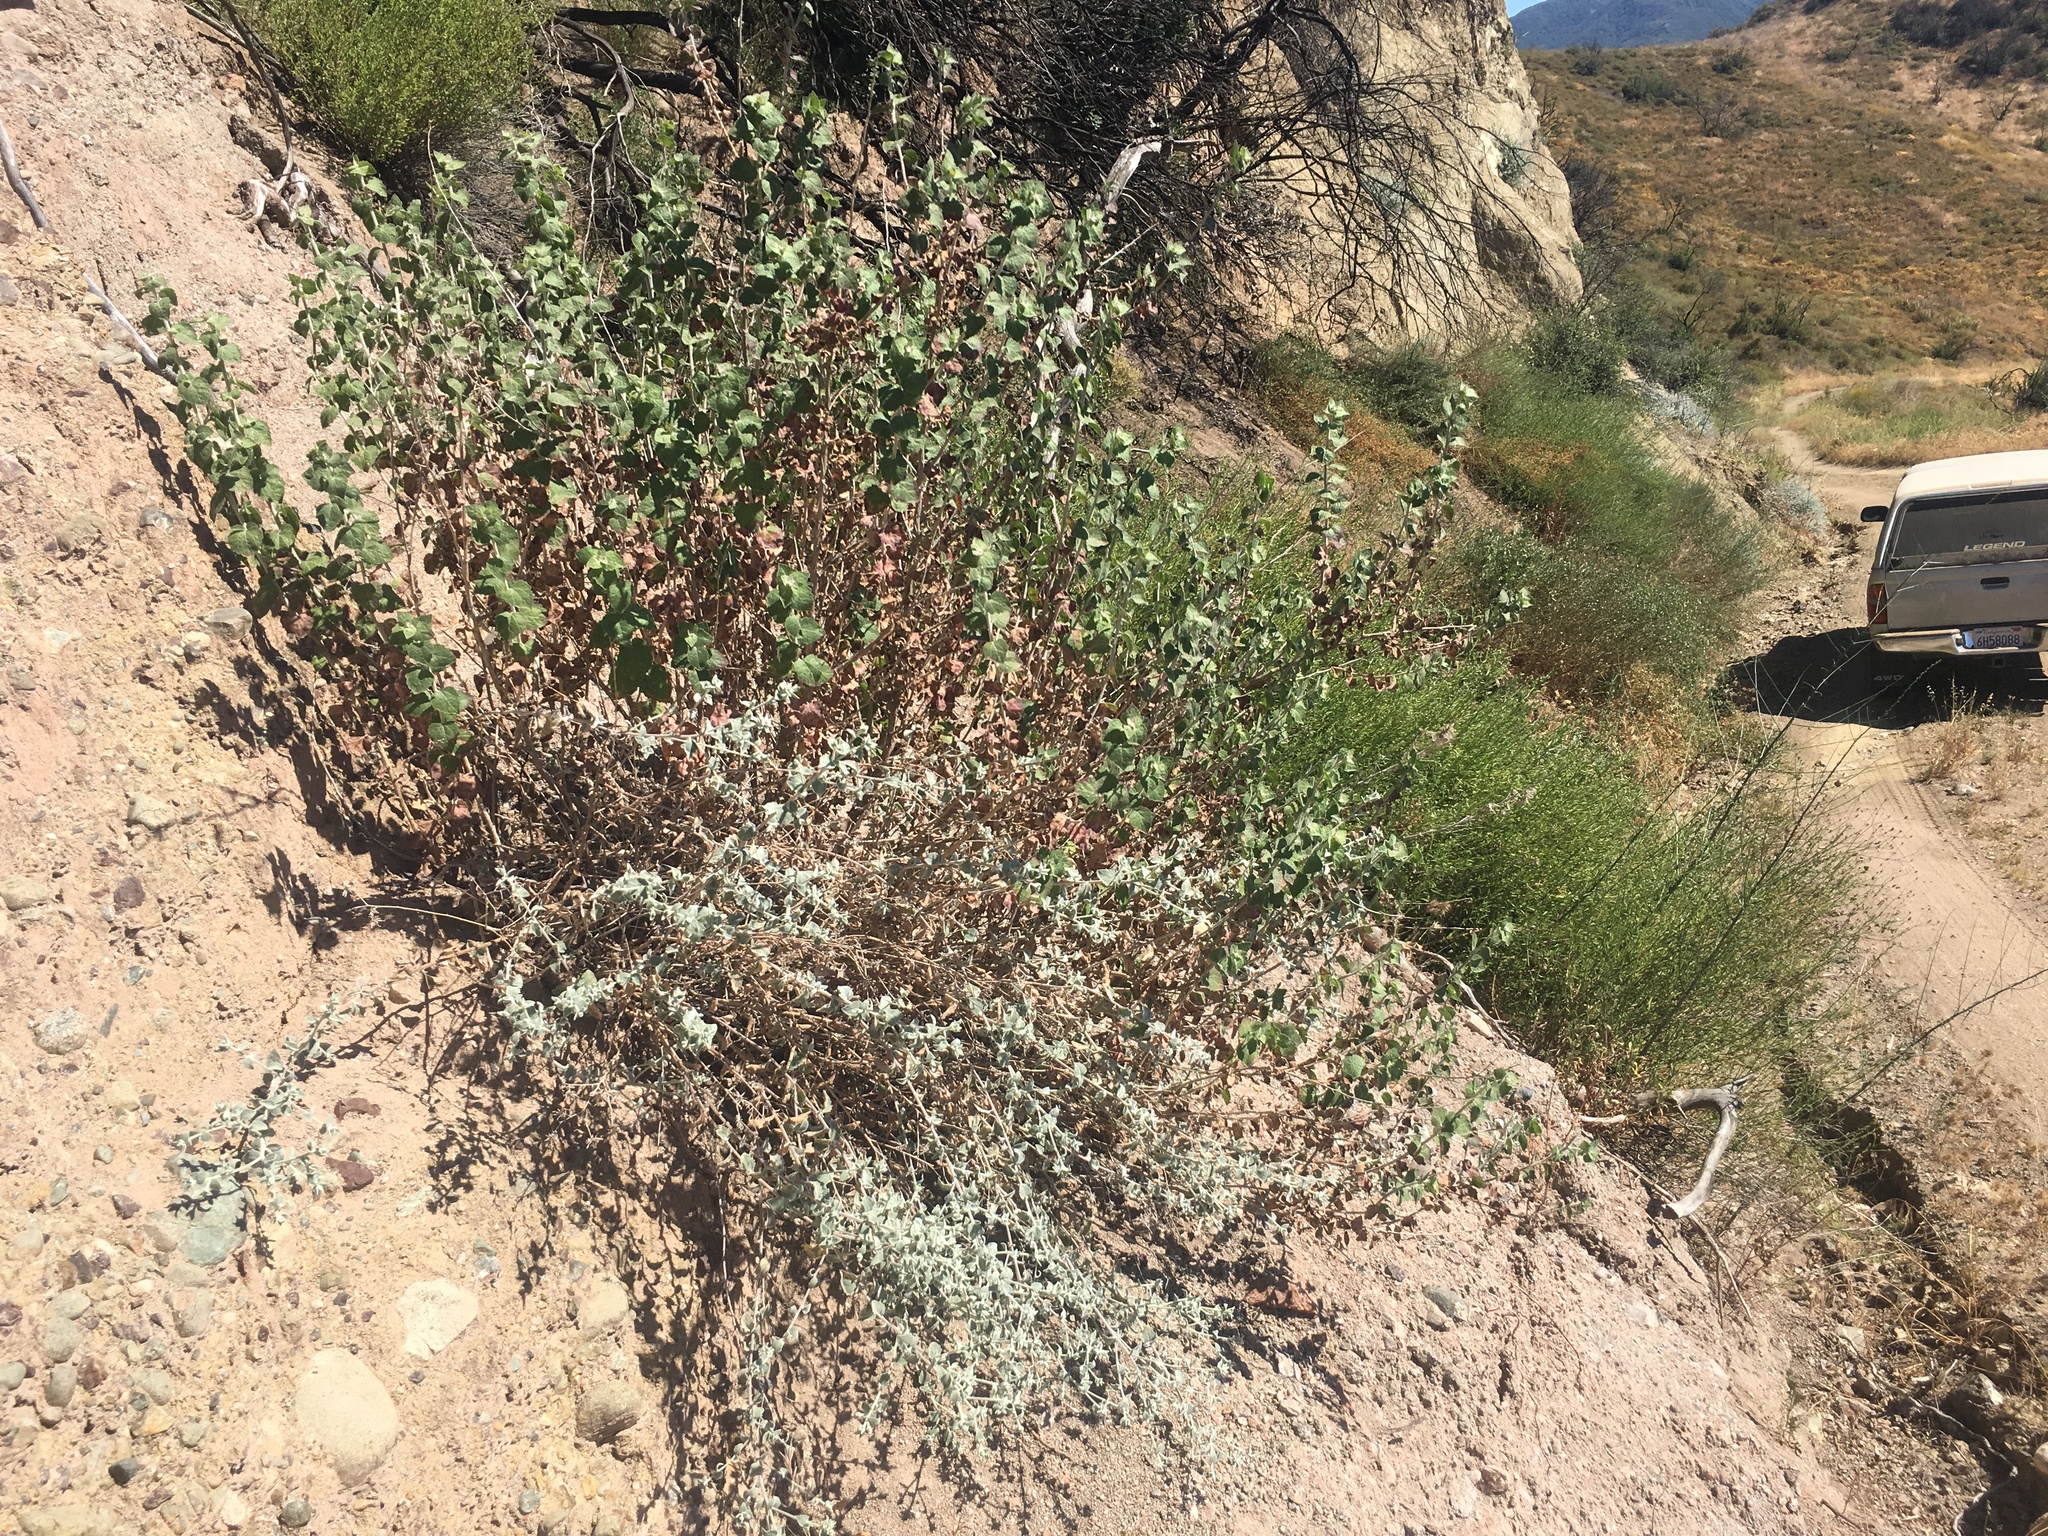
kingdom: Plantae
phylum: Tracheophyta
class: Magnoliopsida
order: Asterales
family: Asteraceae
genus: Brickellia
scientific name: Brickellia nevinii
